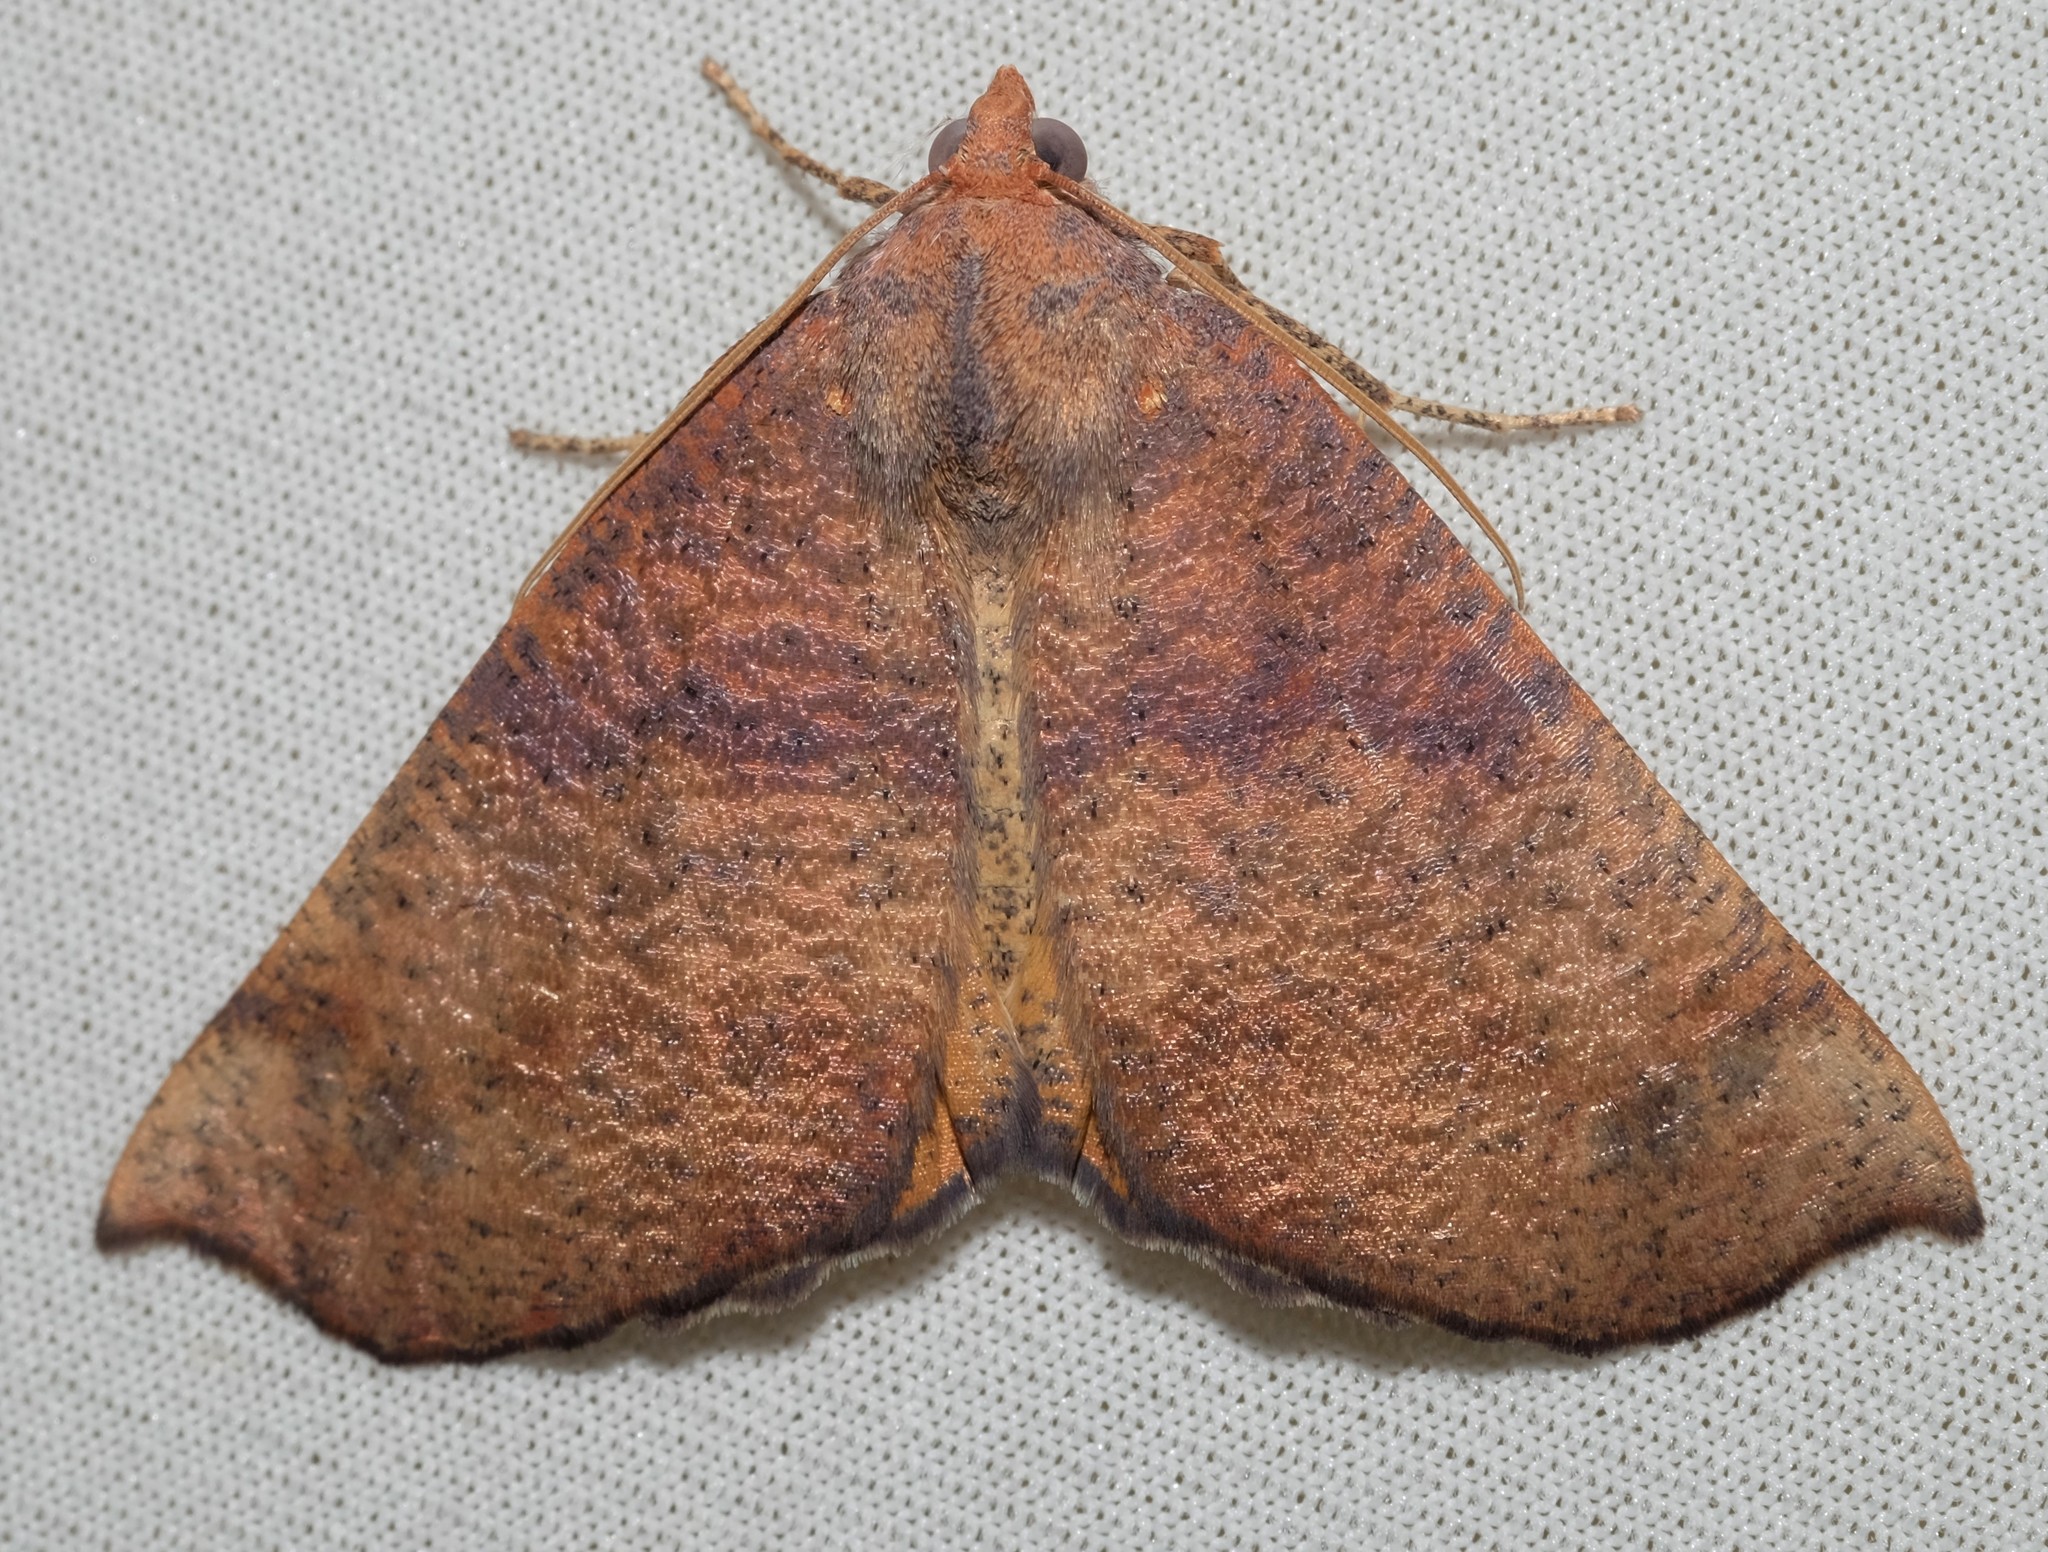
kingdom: Animalia
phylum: Arthropoda
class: Insecta
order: Lepidoptera
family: Geometridae
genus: Mnesampela
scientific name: Mnesampela privata
